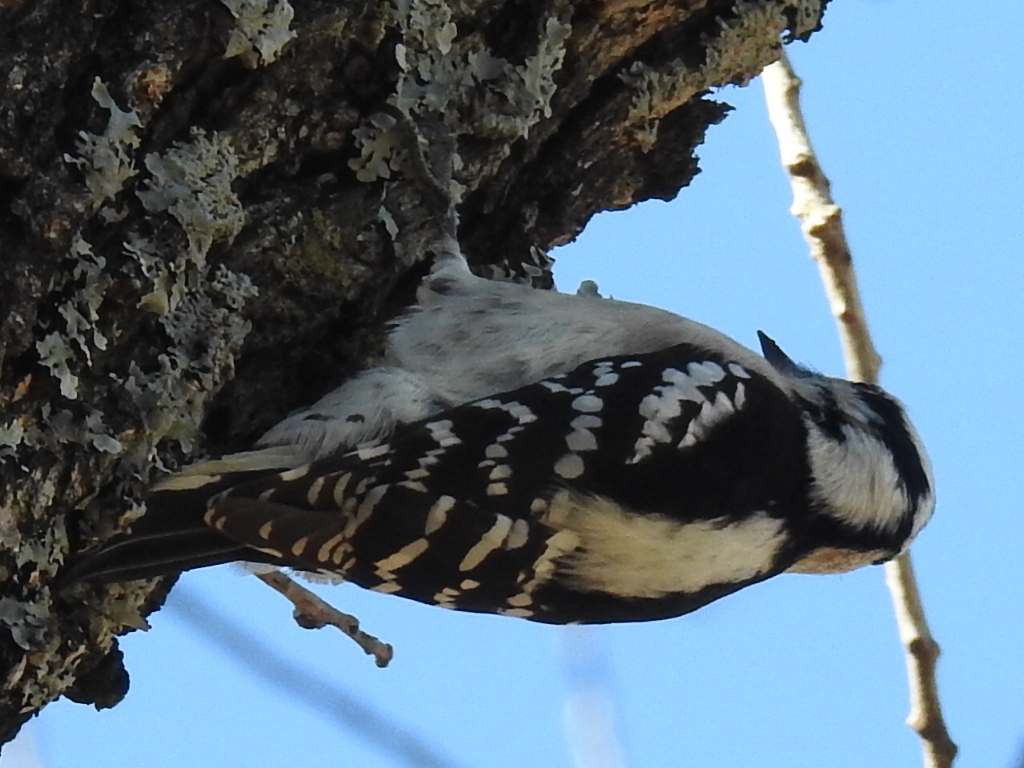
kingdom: Animalia
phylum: Chordata
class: Aves
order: Piciformes
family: Picidae
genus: Dryobates
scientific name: Dryobates pubescens
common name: Downy woodpecker
